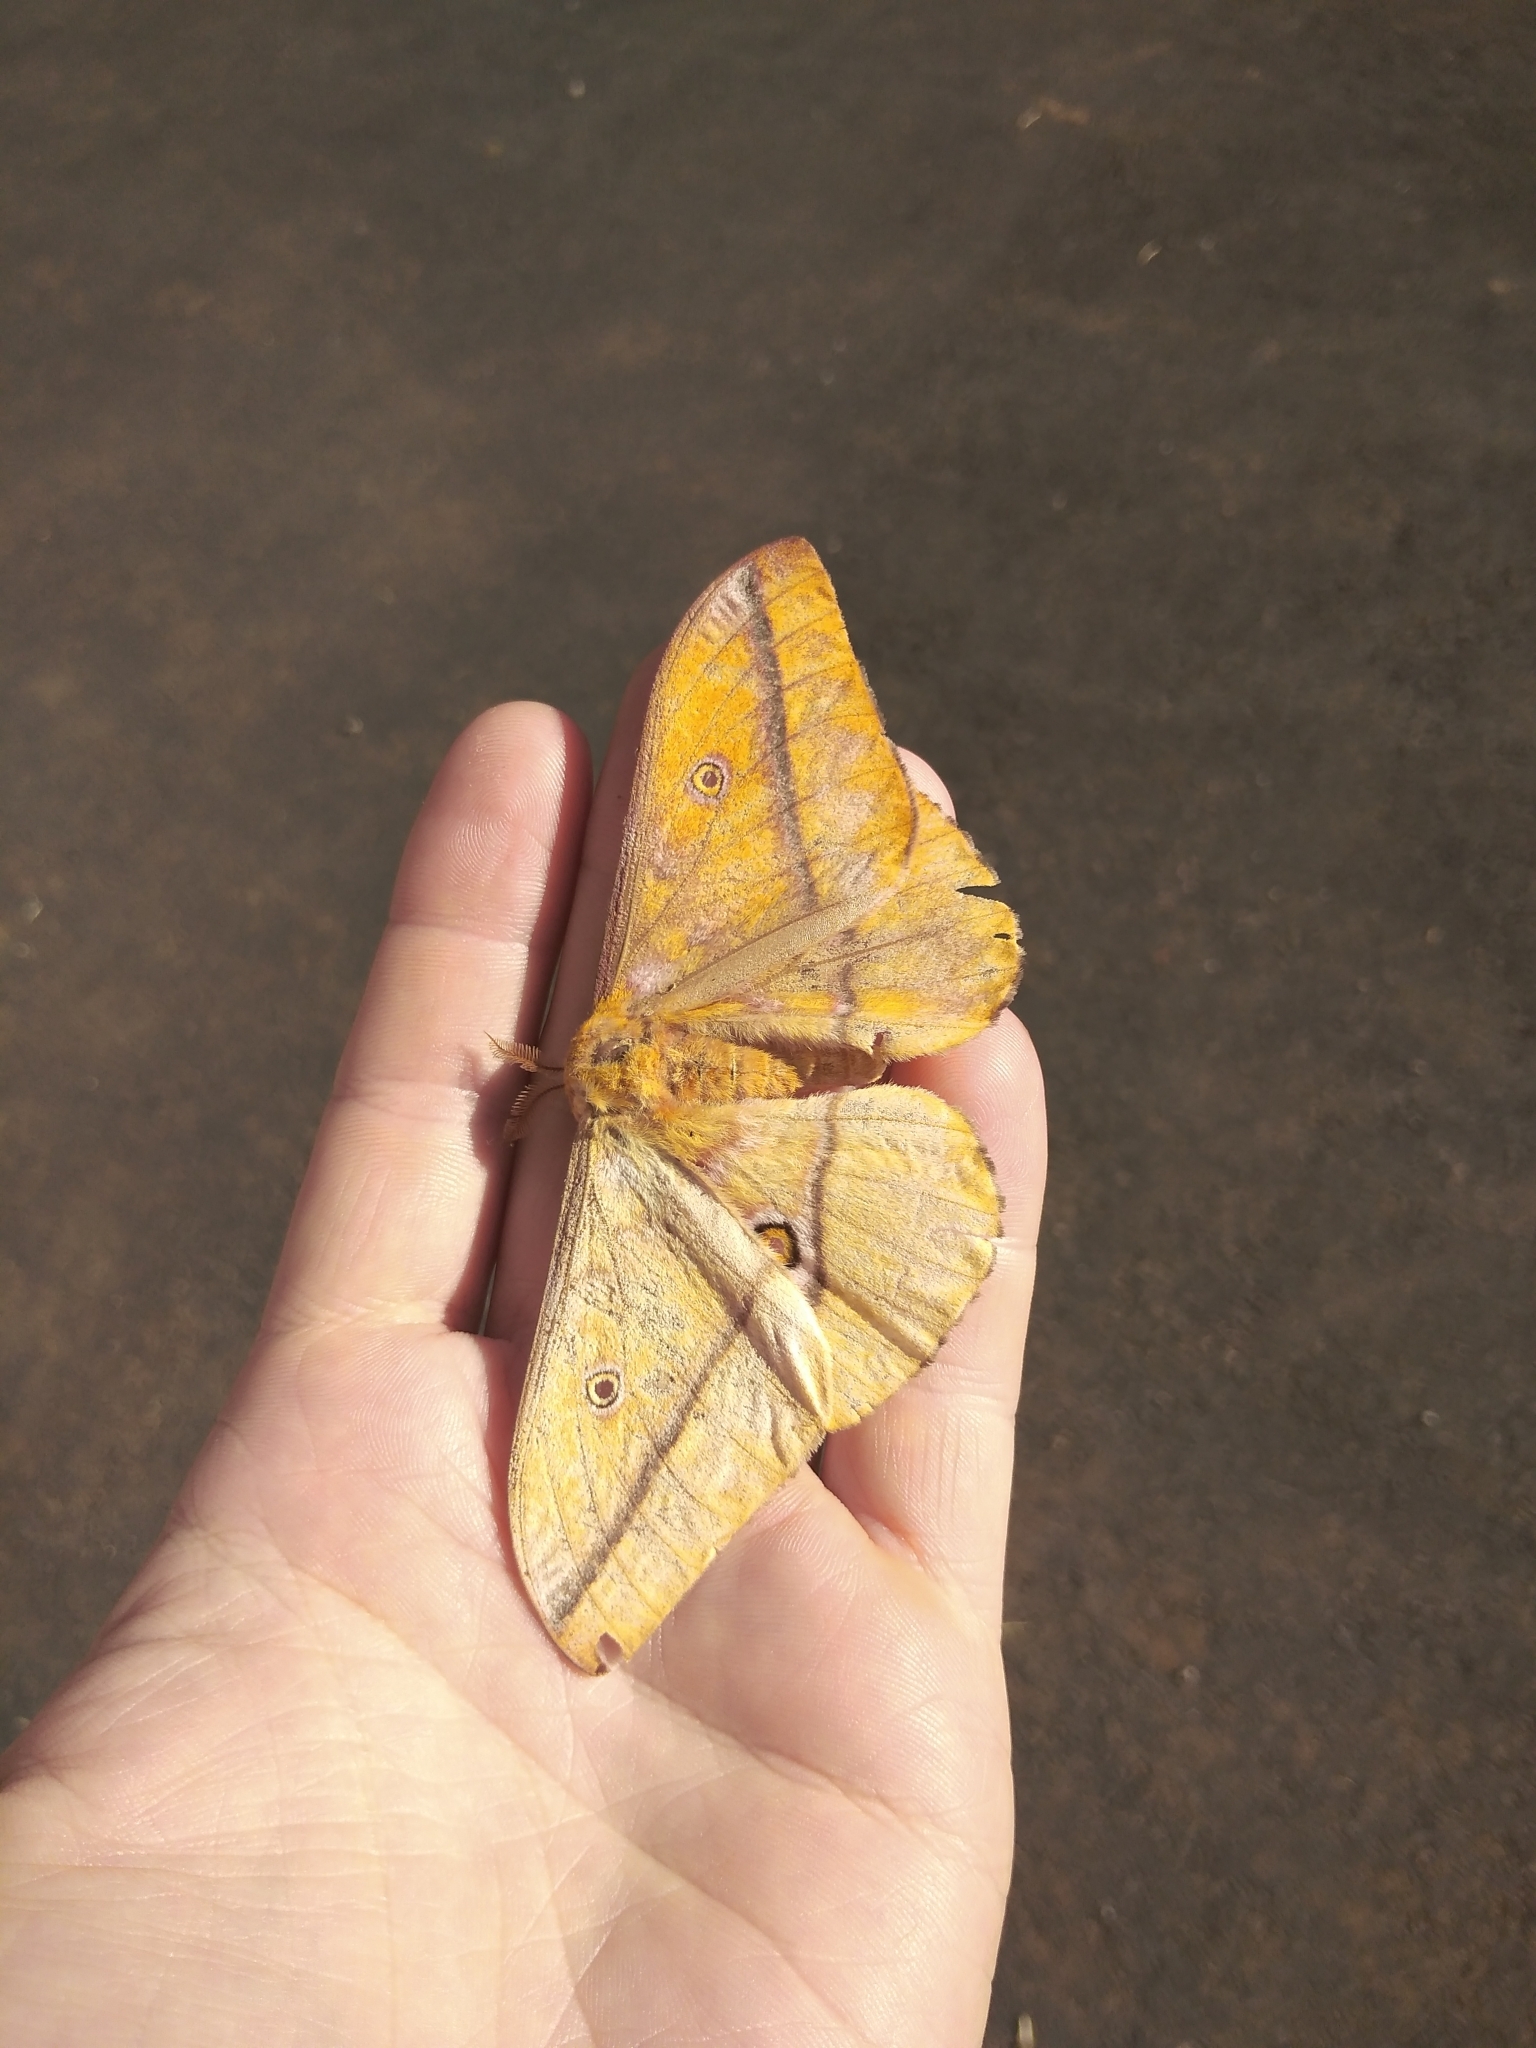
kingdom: Animalia
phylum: Arthropoda
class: Insecta
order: Lepidoptera
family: Saturniidae
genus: Nudaurelia
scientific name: Nudaurelia wahlbergi
